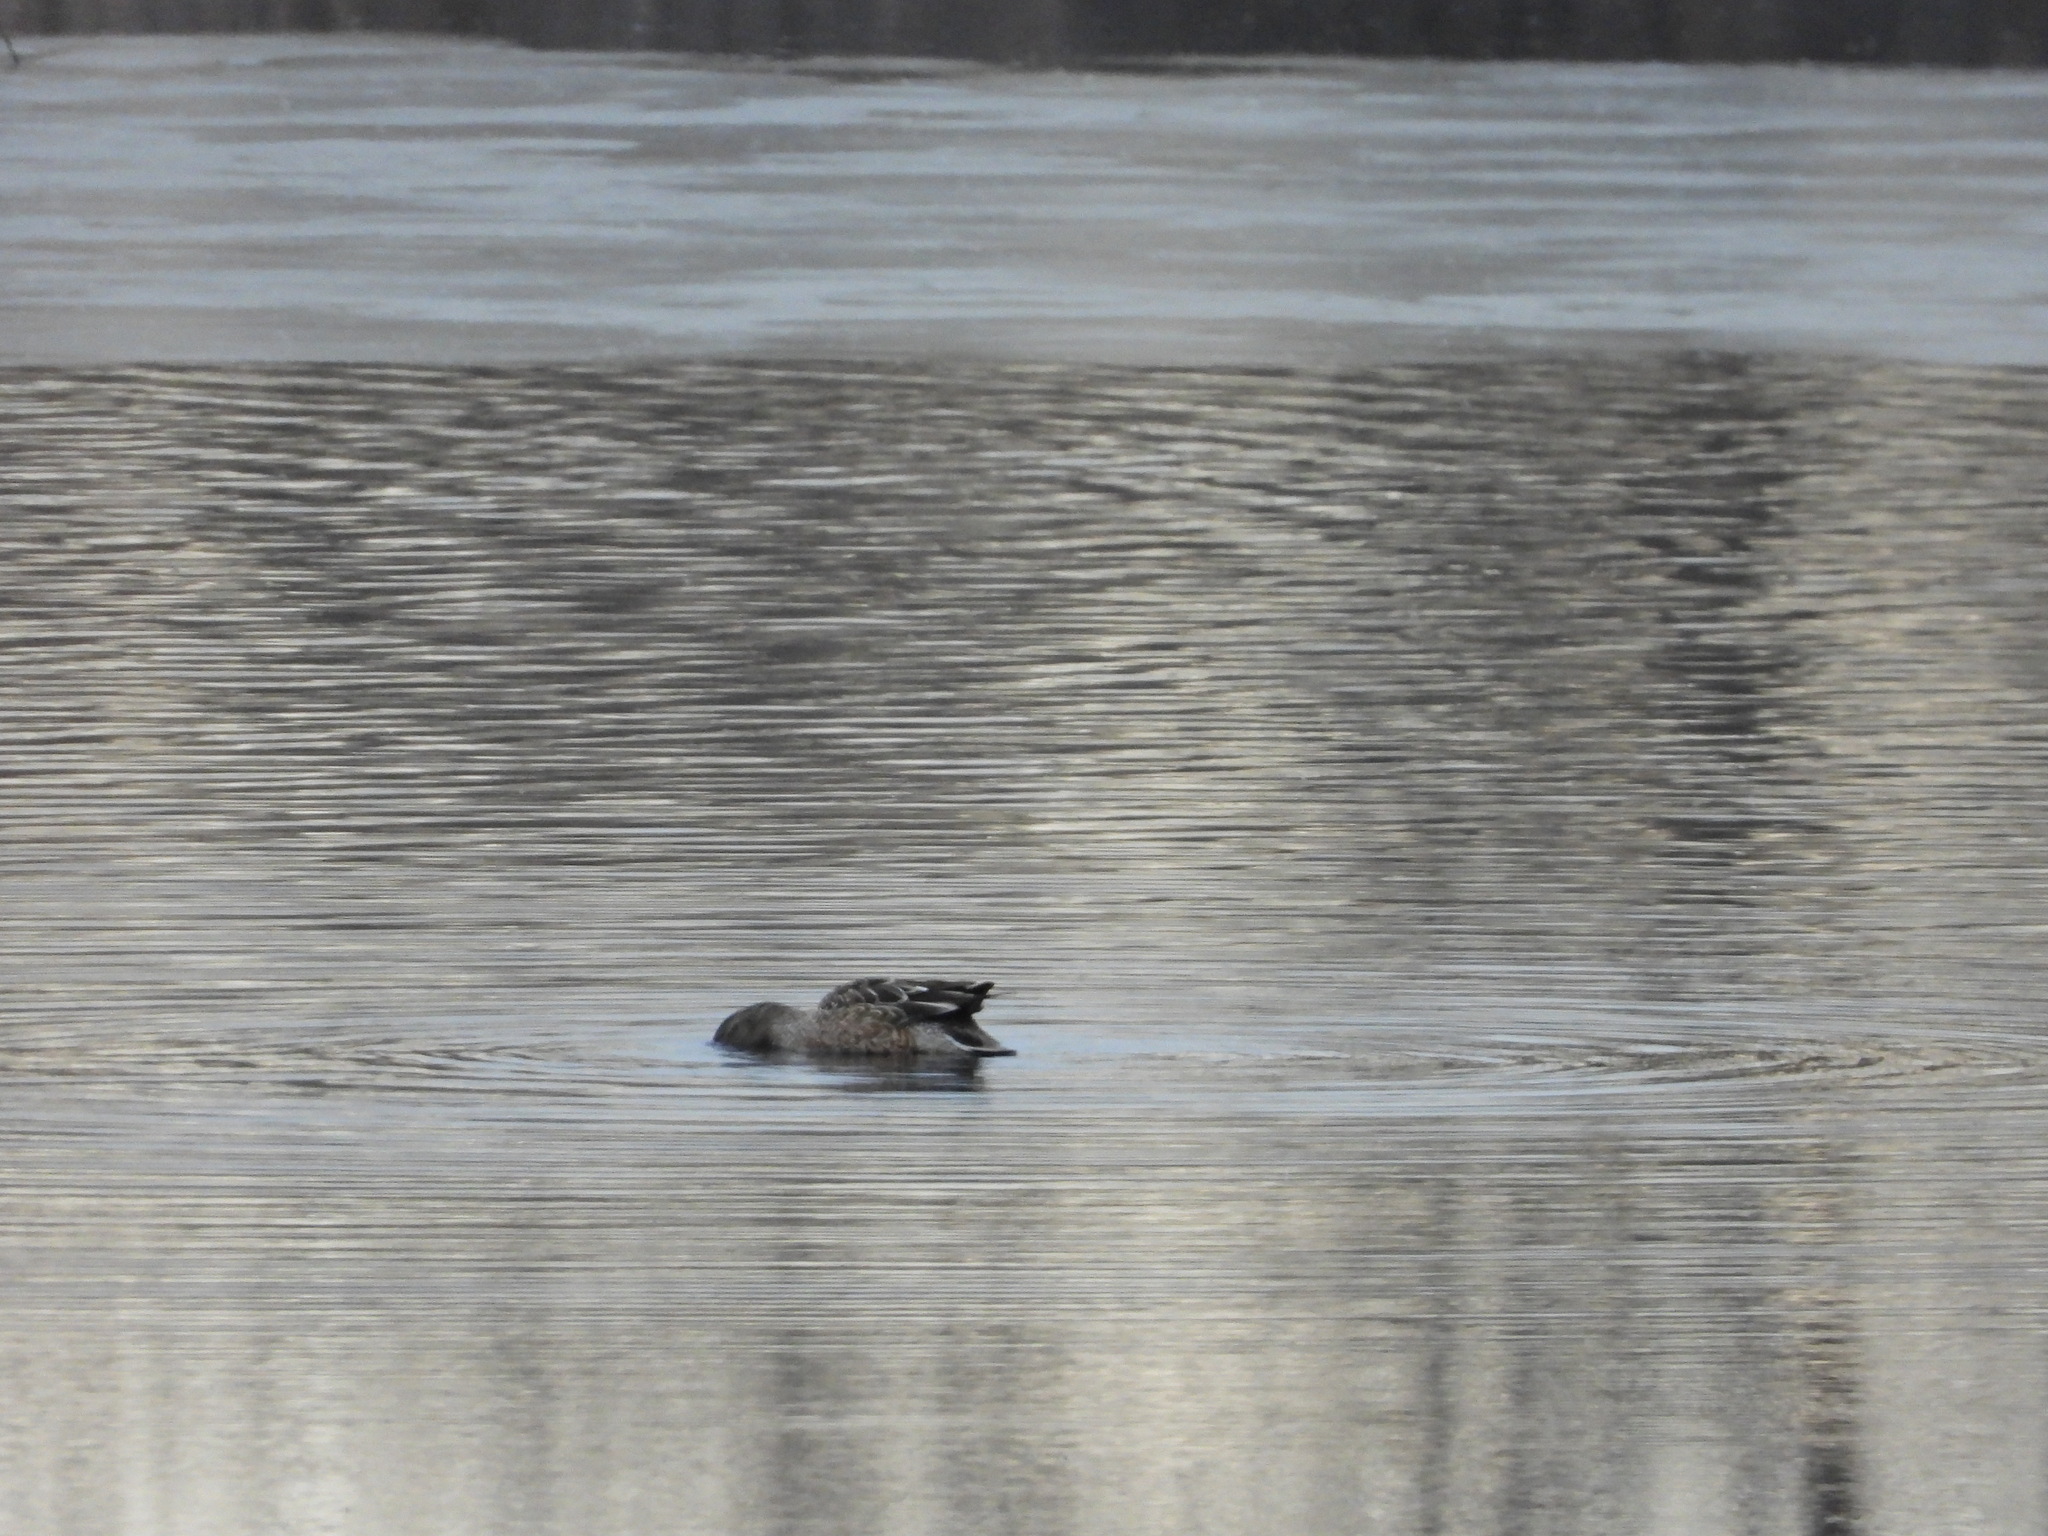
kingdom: Animalia
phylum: Chordata
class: Aves
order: Anseriformes
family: Anatidae
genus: Spatula
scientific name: Spatula clypeata
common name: Northern shoveler
